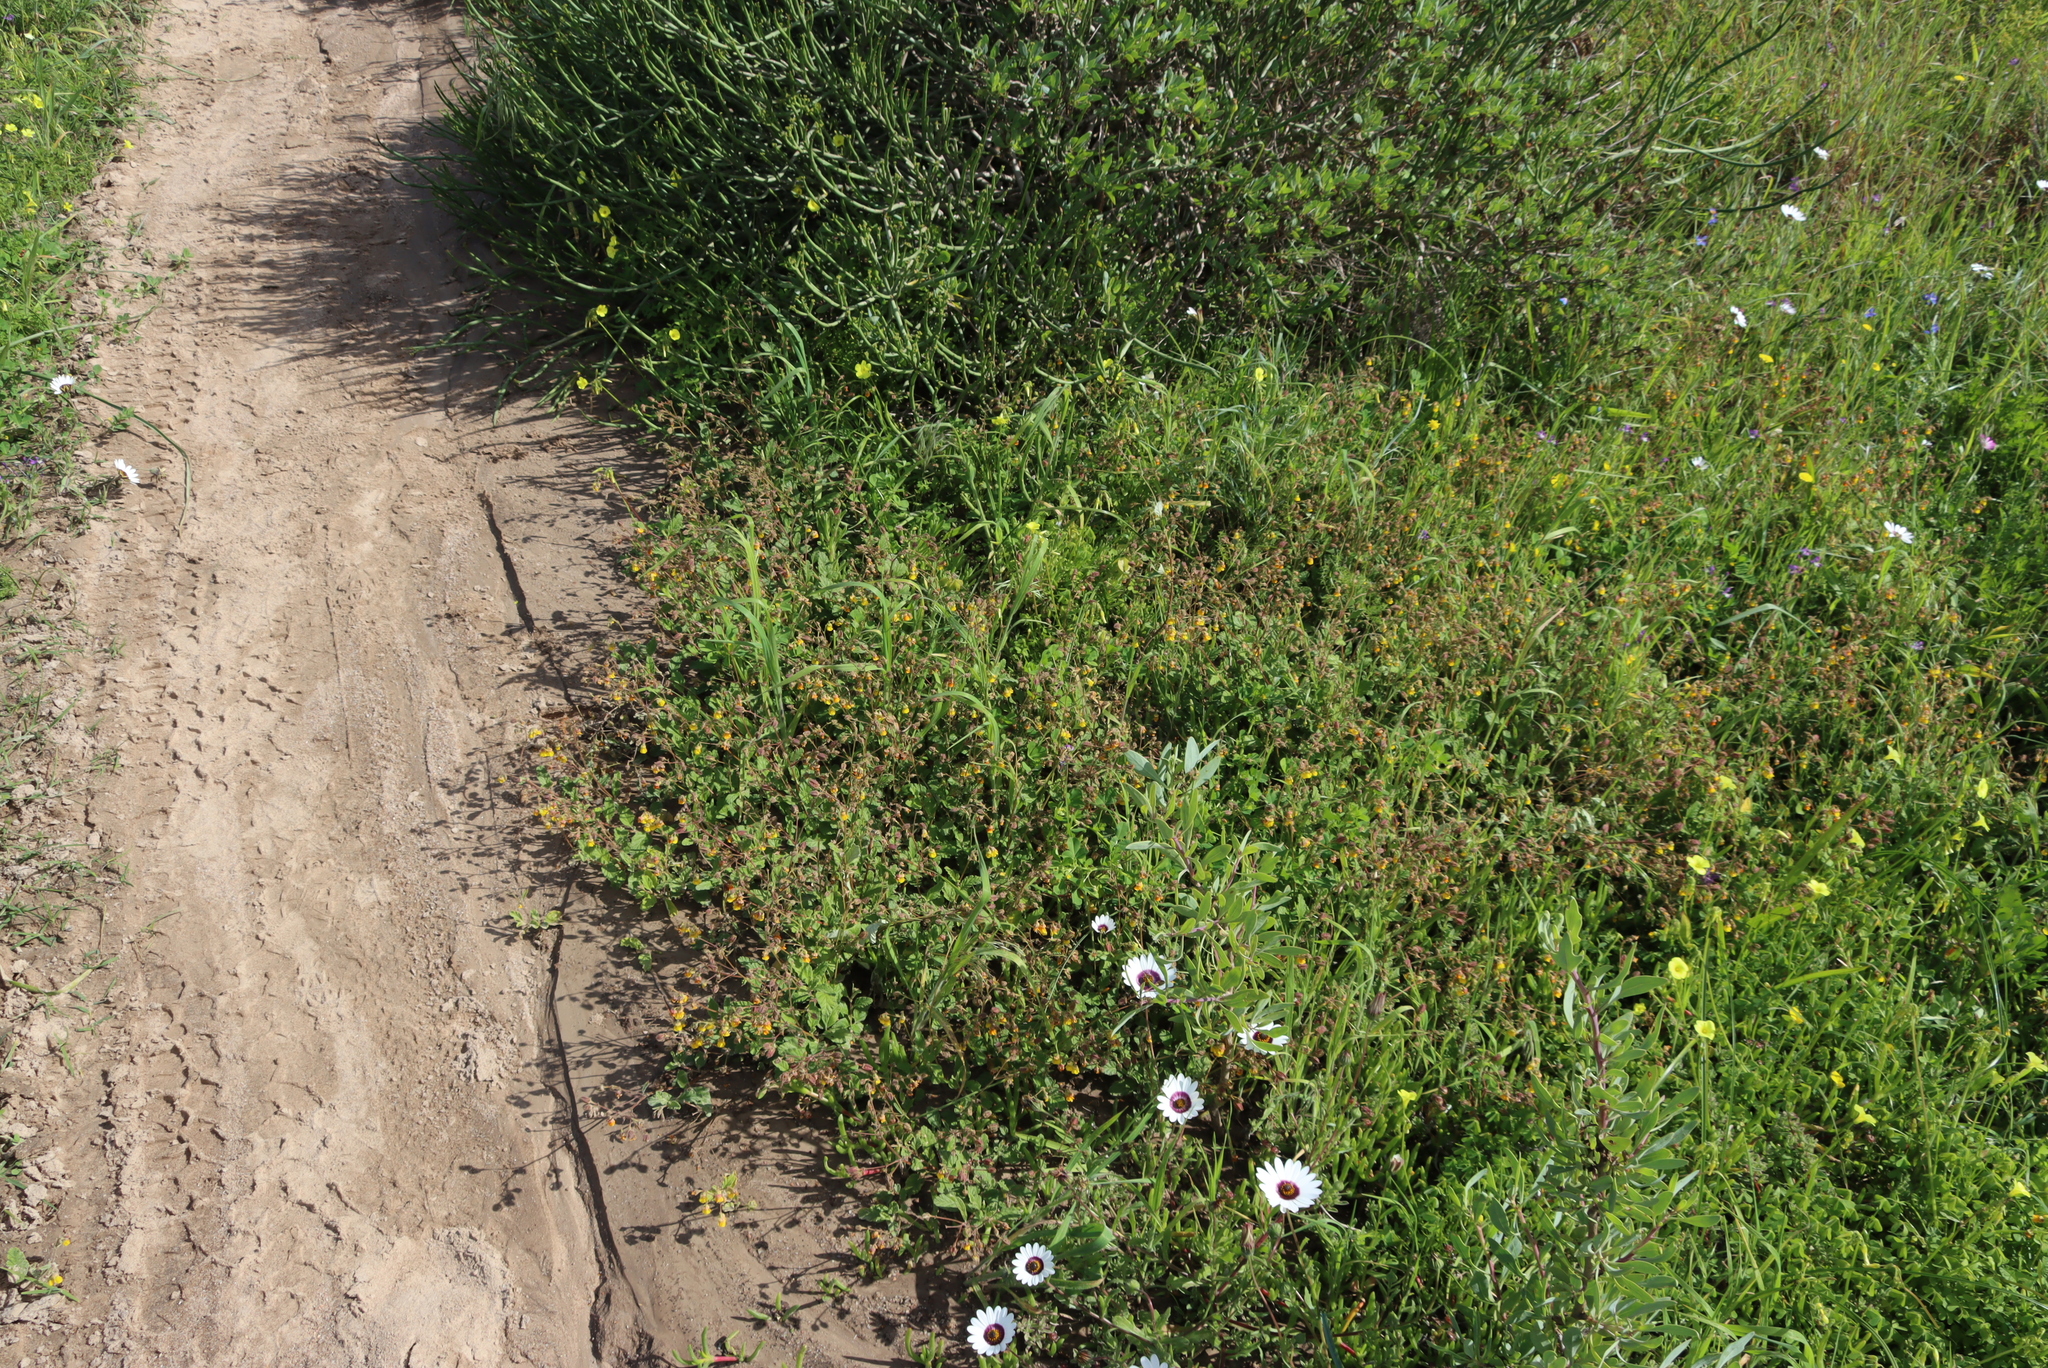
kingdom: Plantae
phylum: Tracheophyta
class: Magnoliopsida
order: Fabales
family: Fabaceae
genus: Medicago
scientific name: Medicago polymorpha
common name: Burclover
